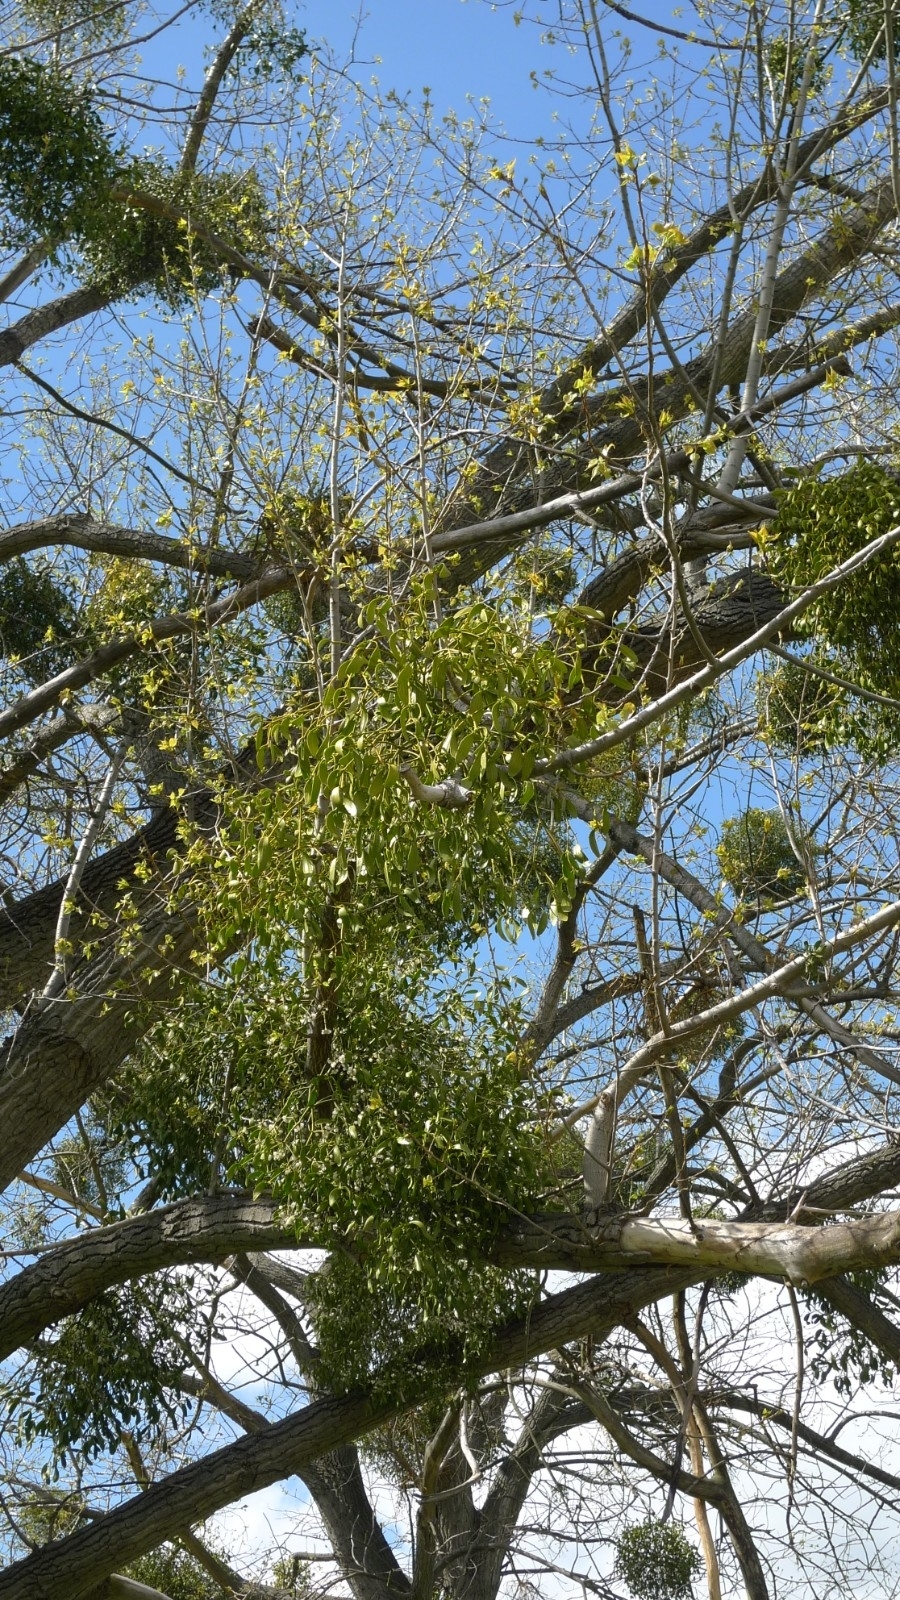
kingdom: Plantae
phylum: Tracheophyta
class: Magnoliopsida
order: Santalales
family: Viscaceae
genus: Viscum
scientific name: Viscum album
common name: Mistletoe
